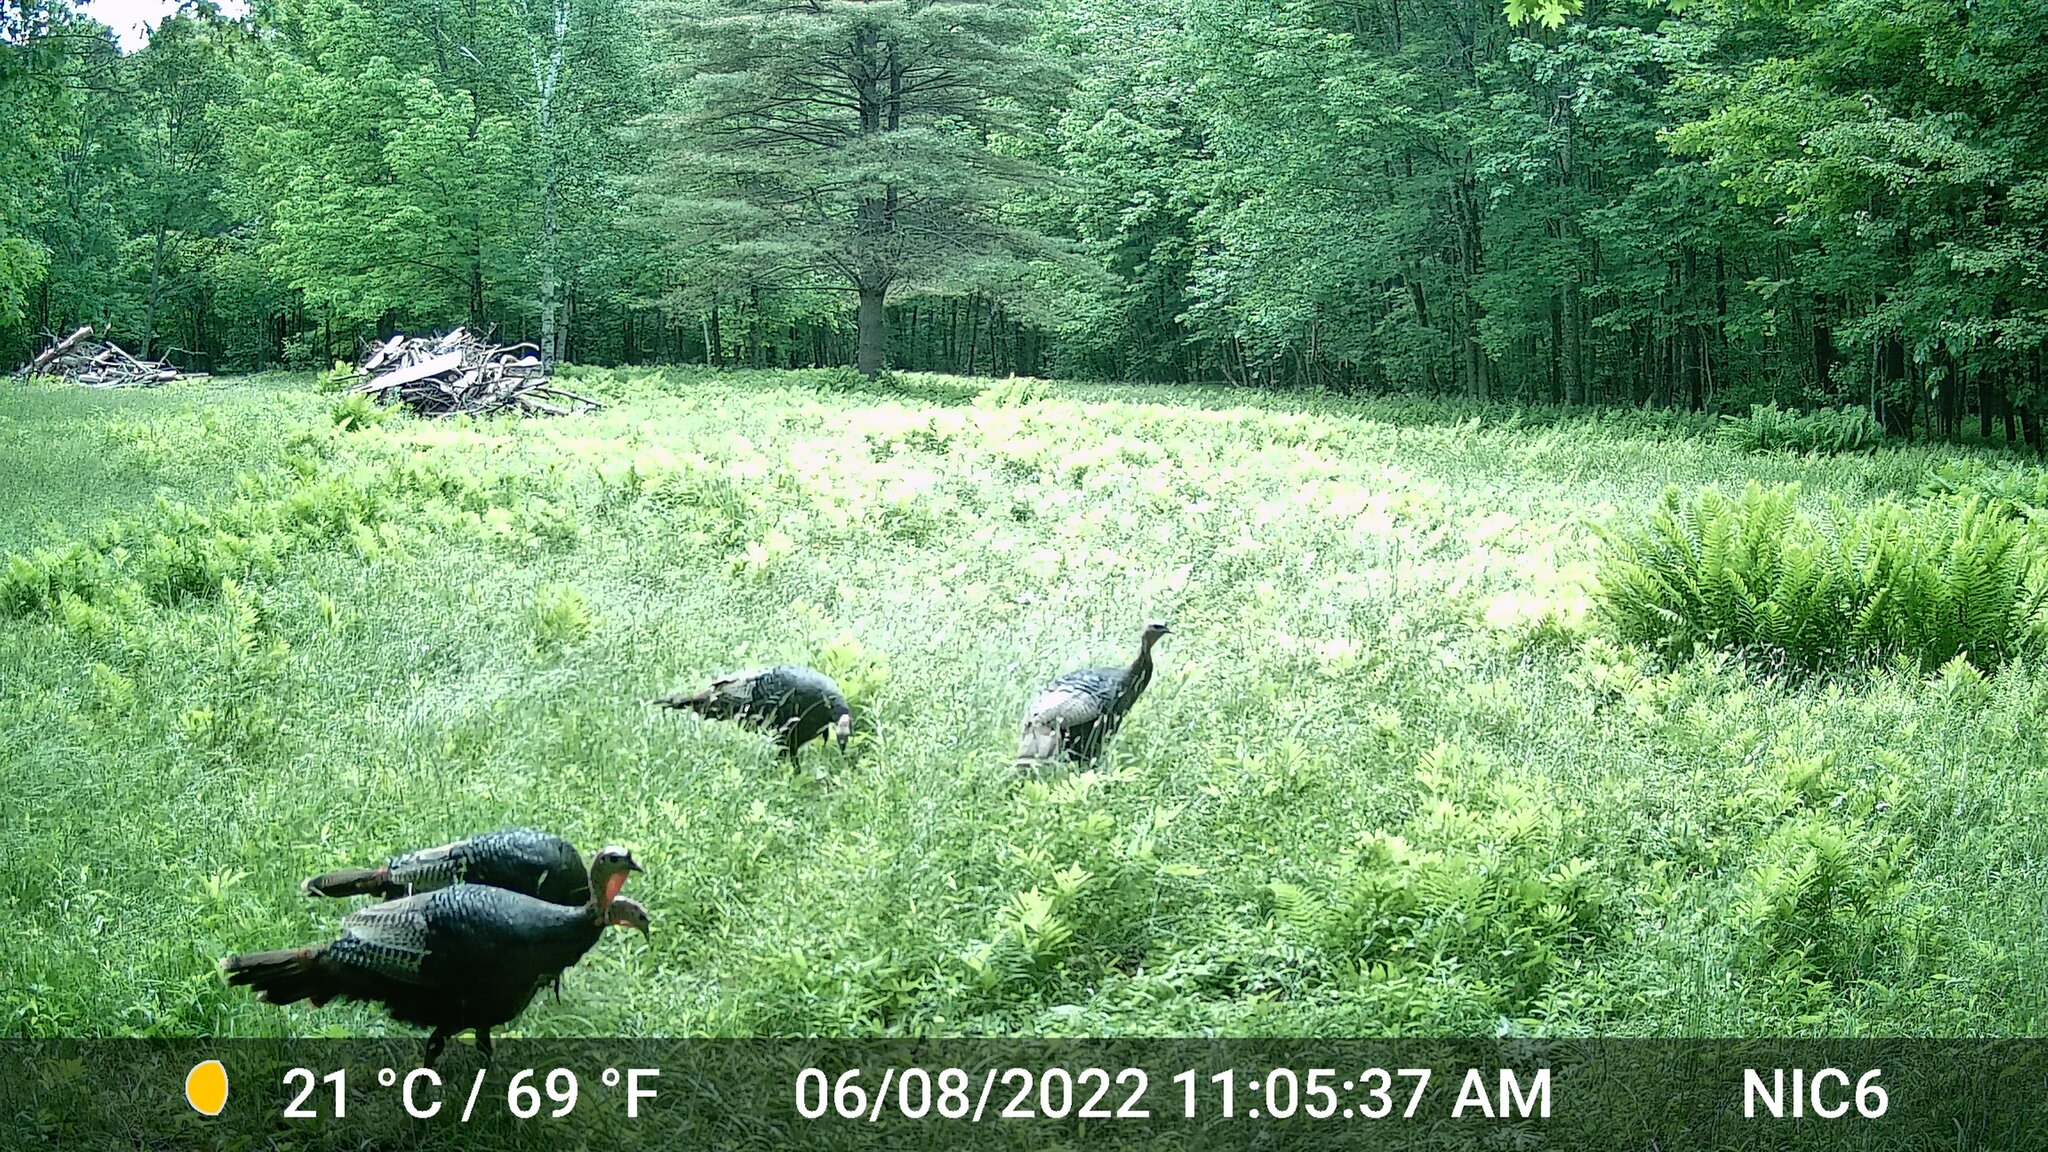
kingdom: Animalia
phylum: Chordata
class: Aves
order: Galliformes
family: Phasianidae
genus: Meleagris
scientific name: Meleagris gallopavo
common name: Wild turkey
